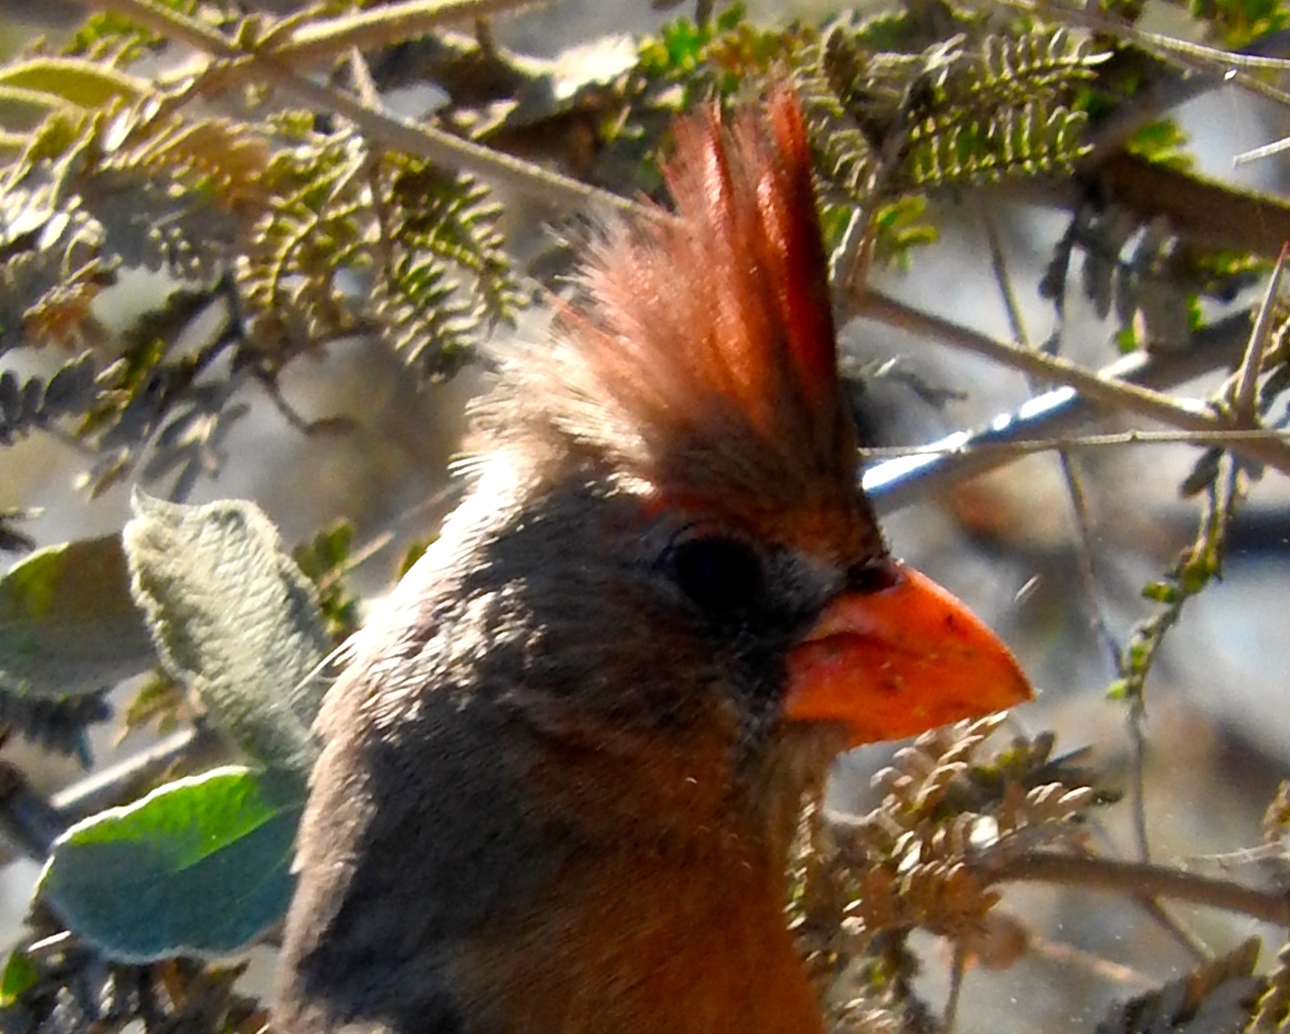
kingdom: Animalia
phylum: Chordata
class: Aves
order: Passeriformes
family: Cardinalidae
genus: Cardinalis
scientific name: Cardinalis cardinalis
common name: Northern cardinal
